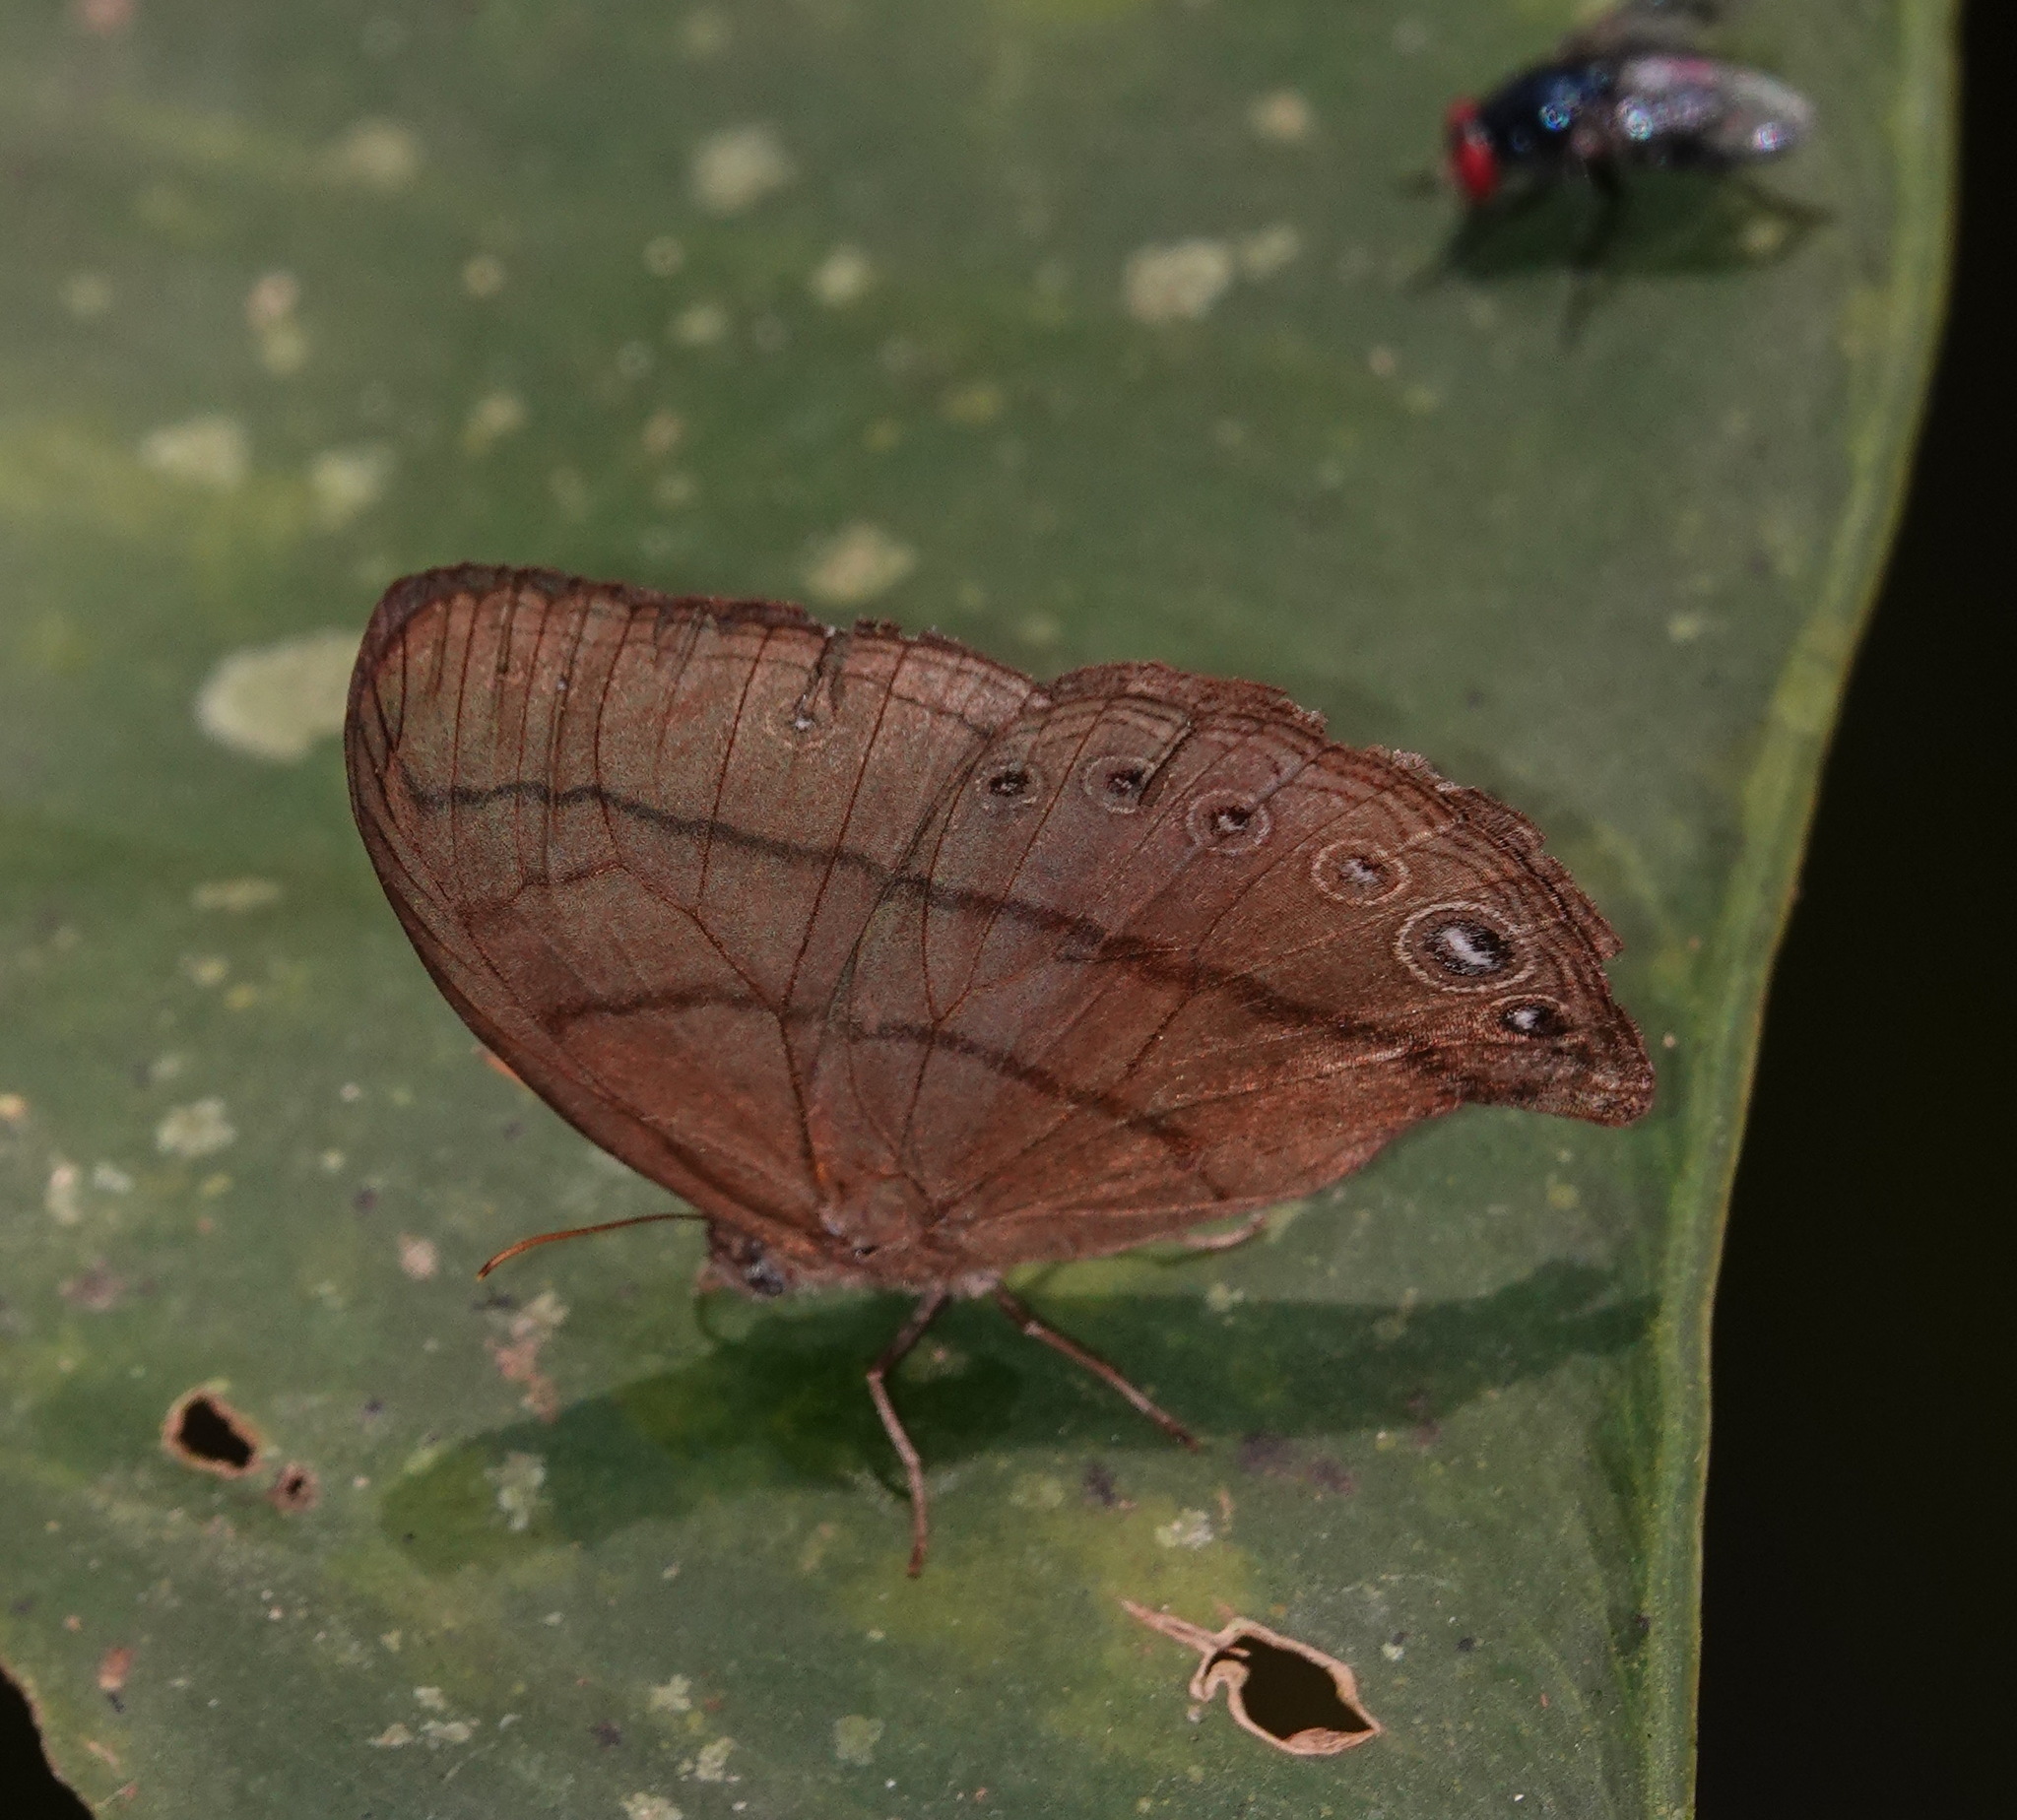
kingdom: Animalia
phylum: Arthropoda
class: Insecta
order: Lepidoptera
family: Nymphalidae
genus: Erichthodes
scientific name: Erichthodes erichtho
